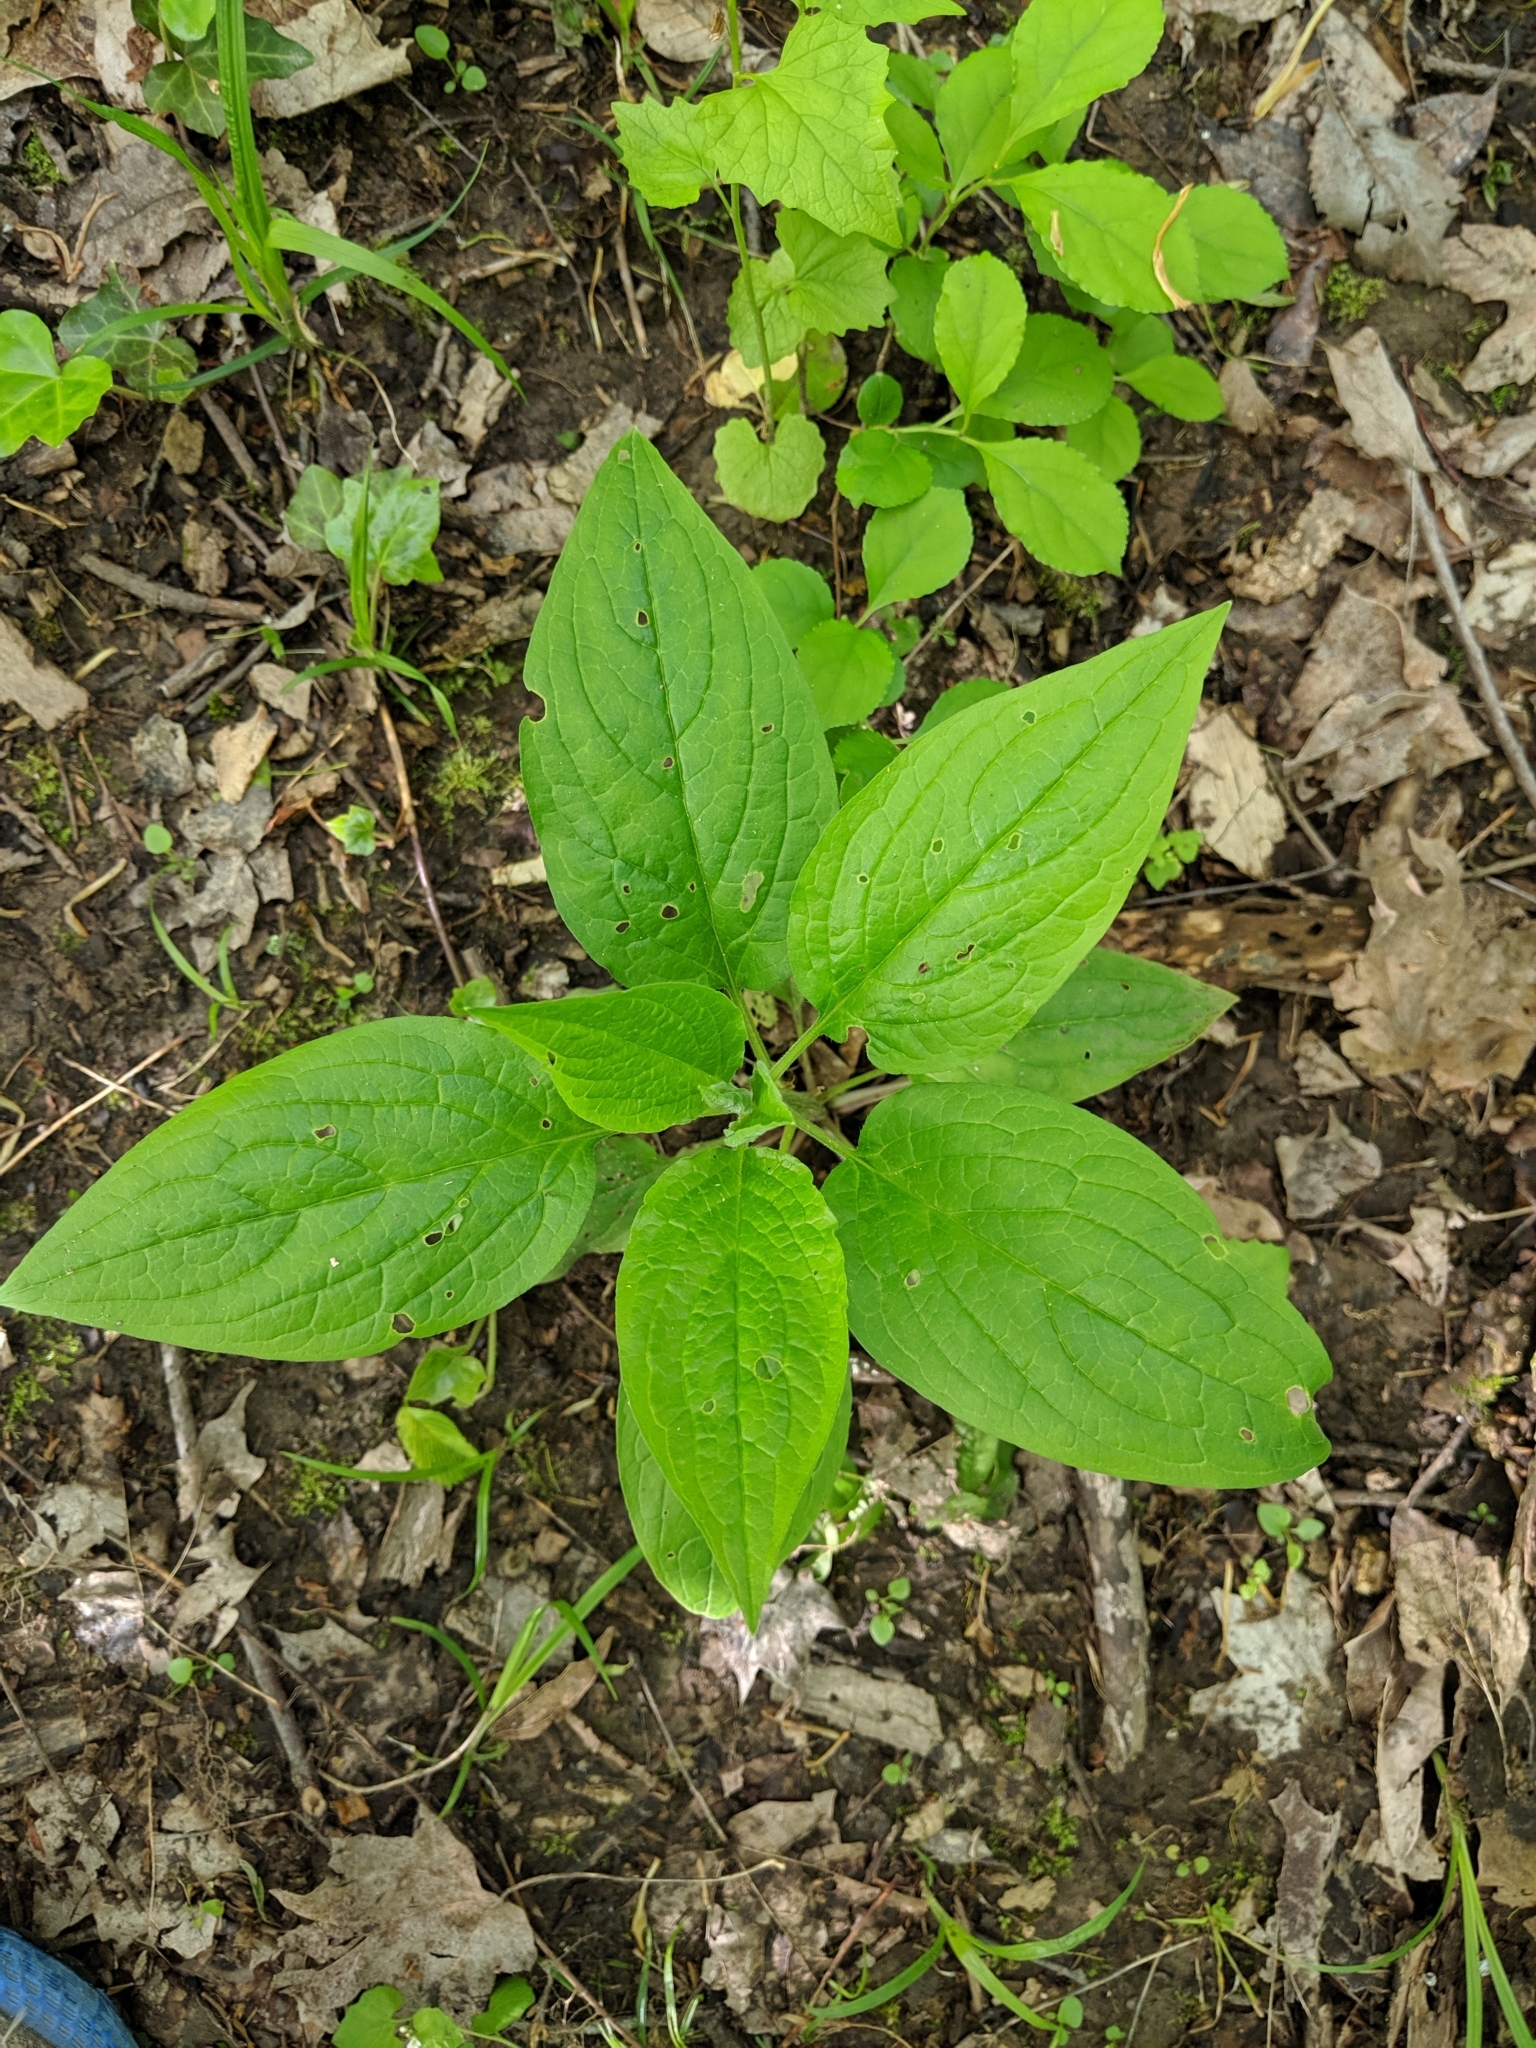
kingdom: Plantae
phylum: Tracheophyta
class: Magnoliopsida
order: Boraginales
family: Boraginaceae
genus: Hackelia
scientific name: Hackelia virginiana
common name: Beggar's-lice
